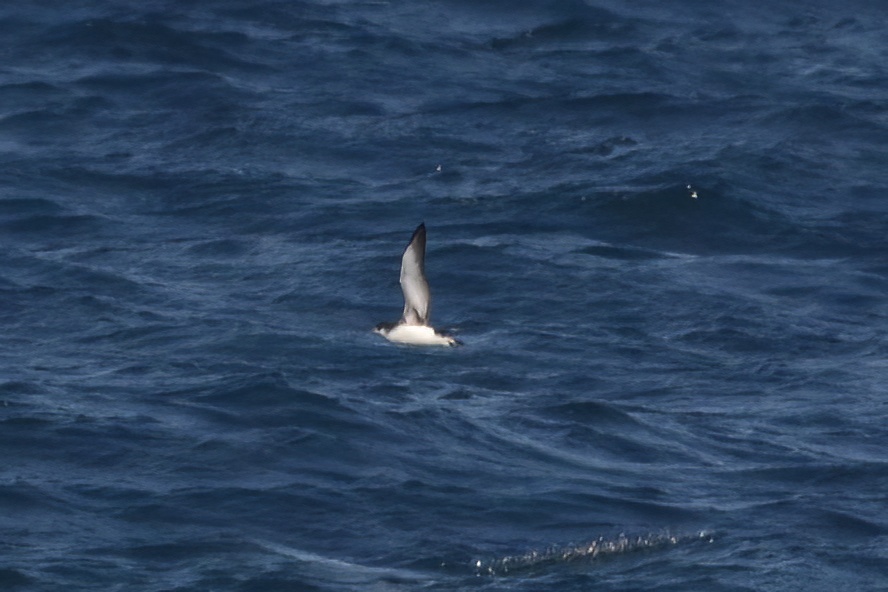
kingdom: Animalia
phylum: Chordata
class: Aves
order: Procellariiformes
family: Procellariidae
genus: Puffinus
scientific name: Puffinus gavia
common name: Fluttering shearwater
